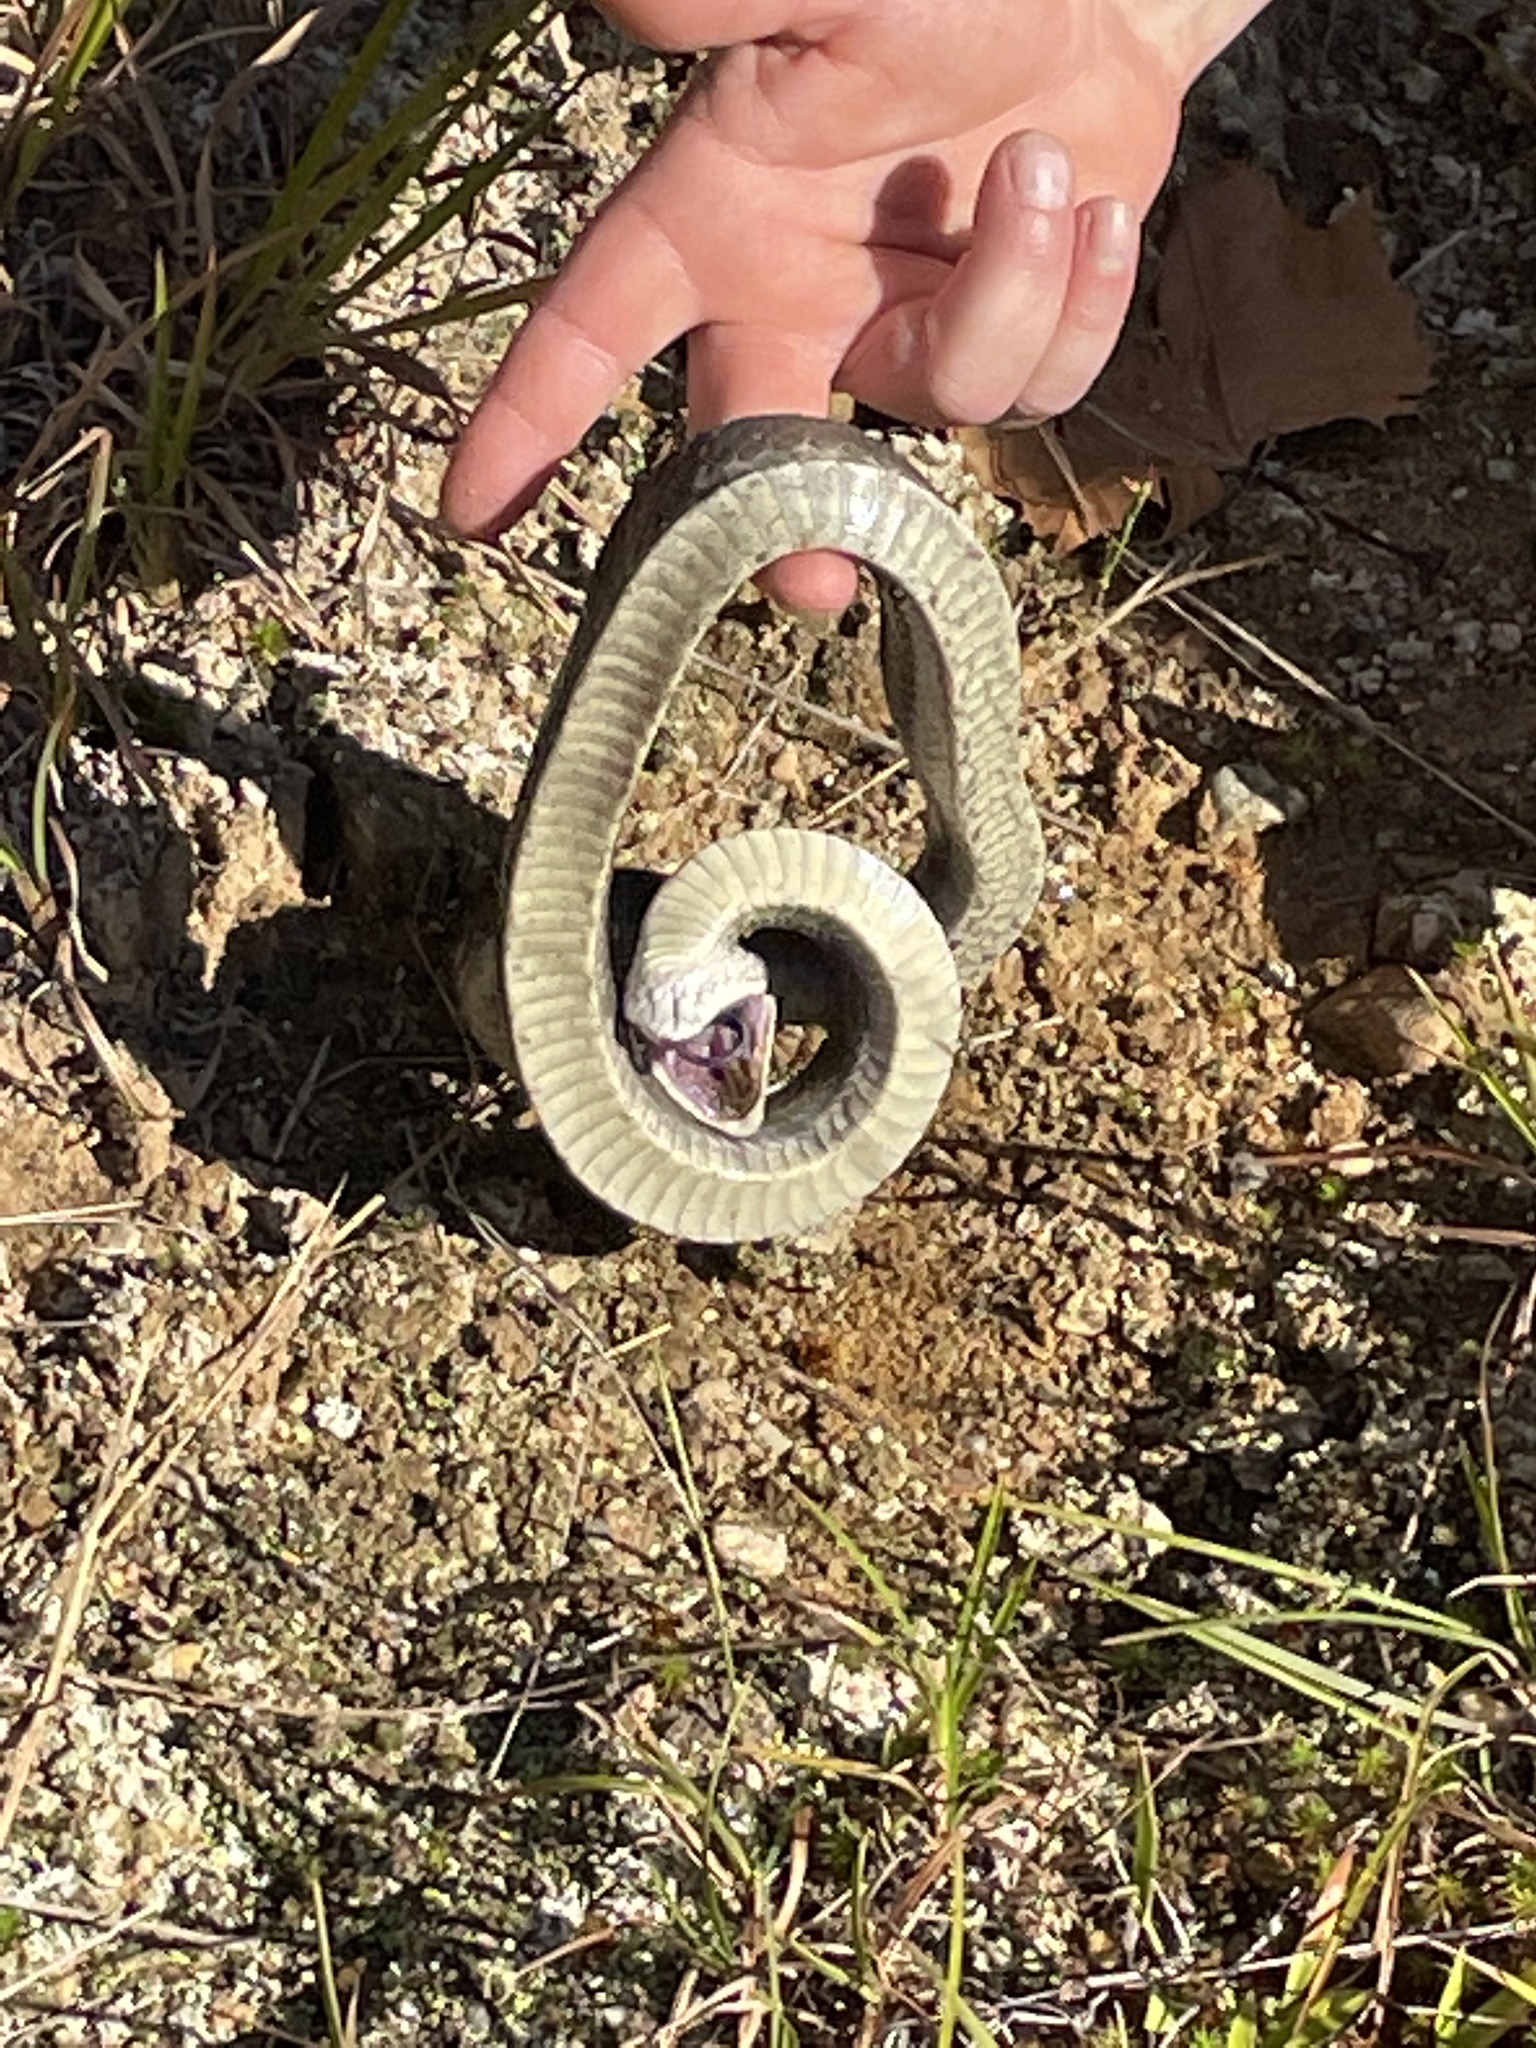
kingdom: Animalia
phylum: Chordata
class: Squamata
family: Colubridae
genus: Heterodon
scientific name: Heterodon platirhinos
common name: Eastern hognose snake
